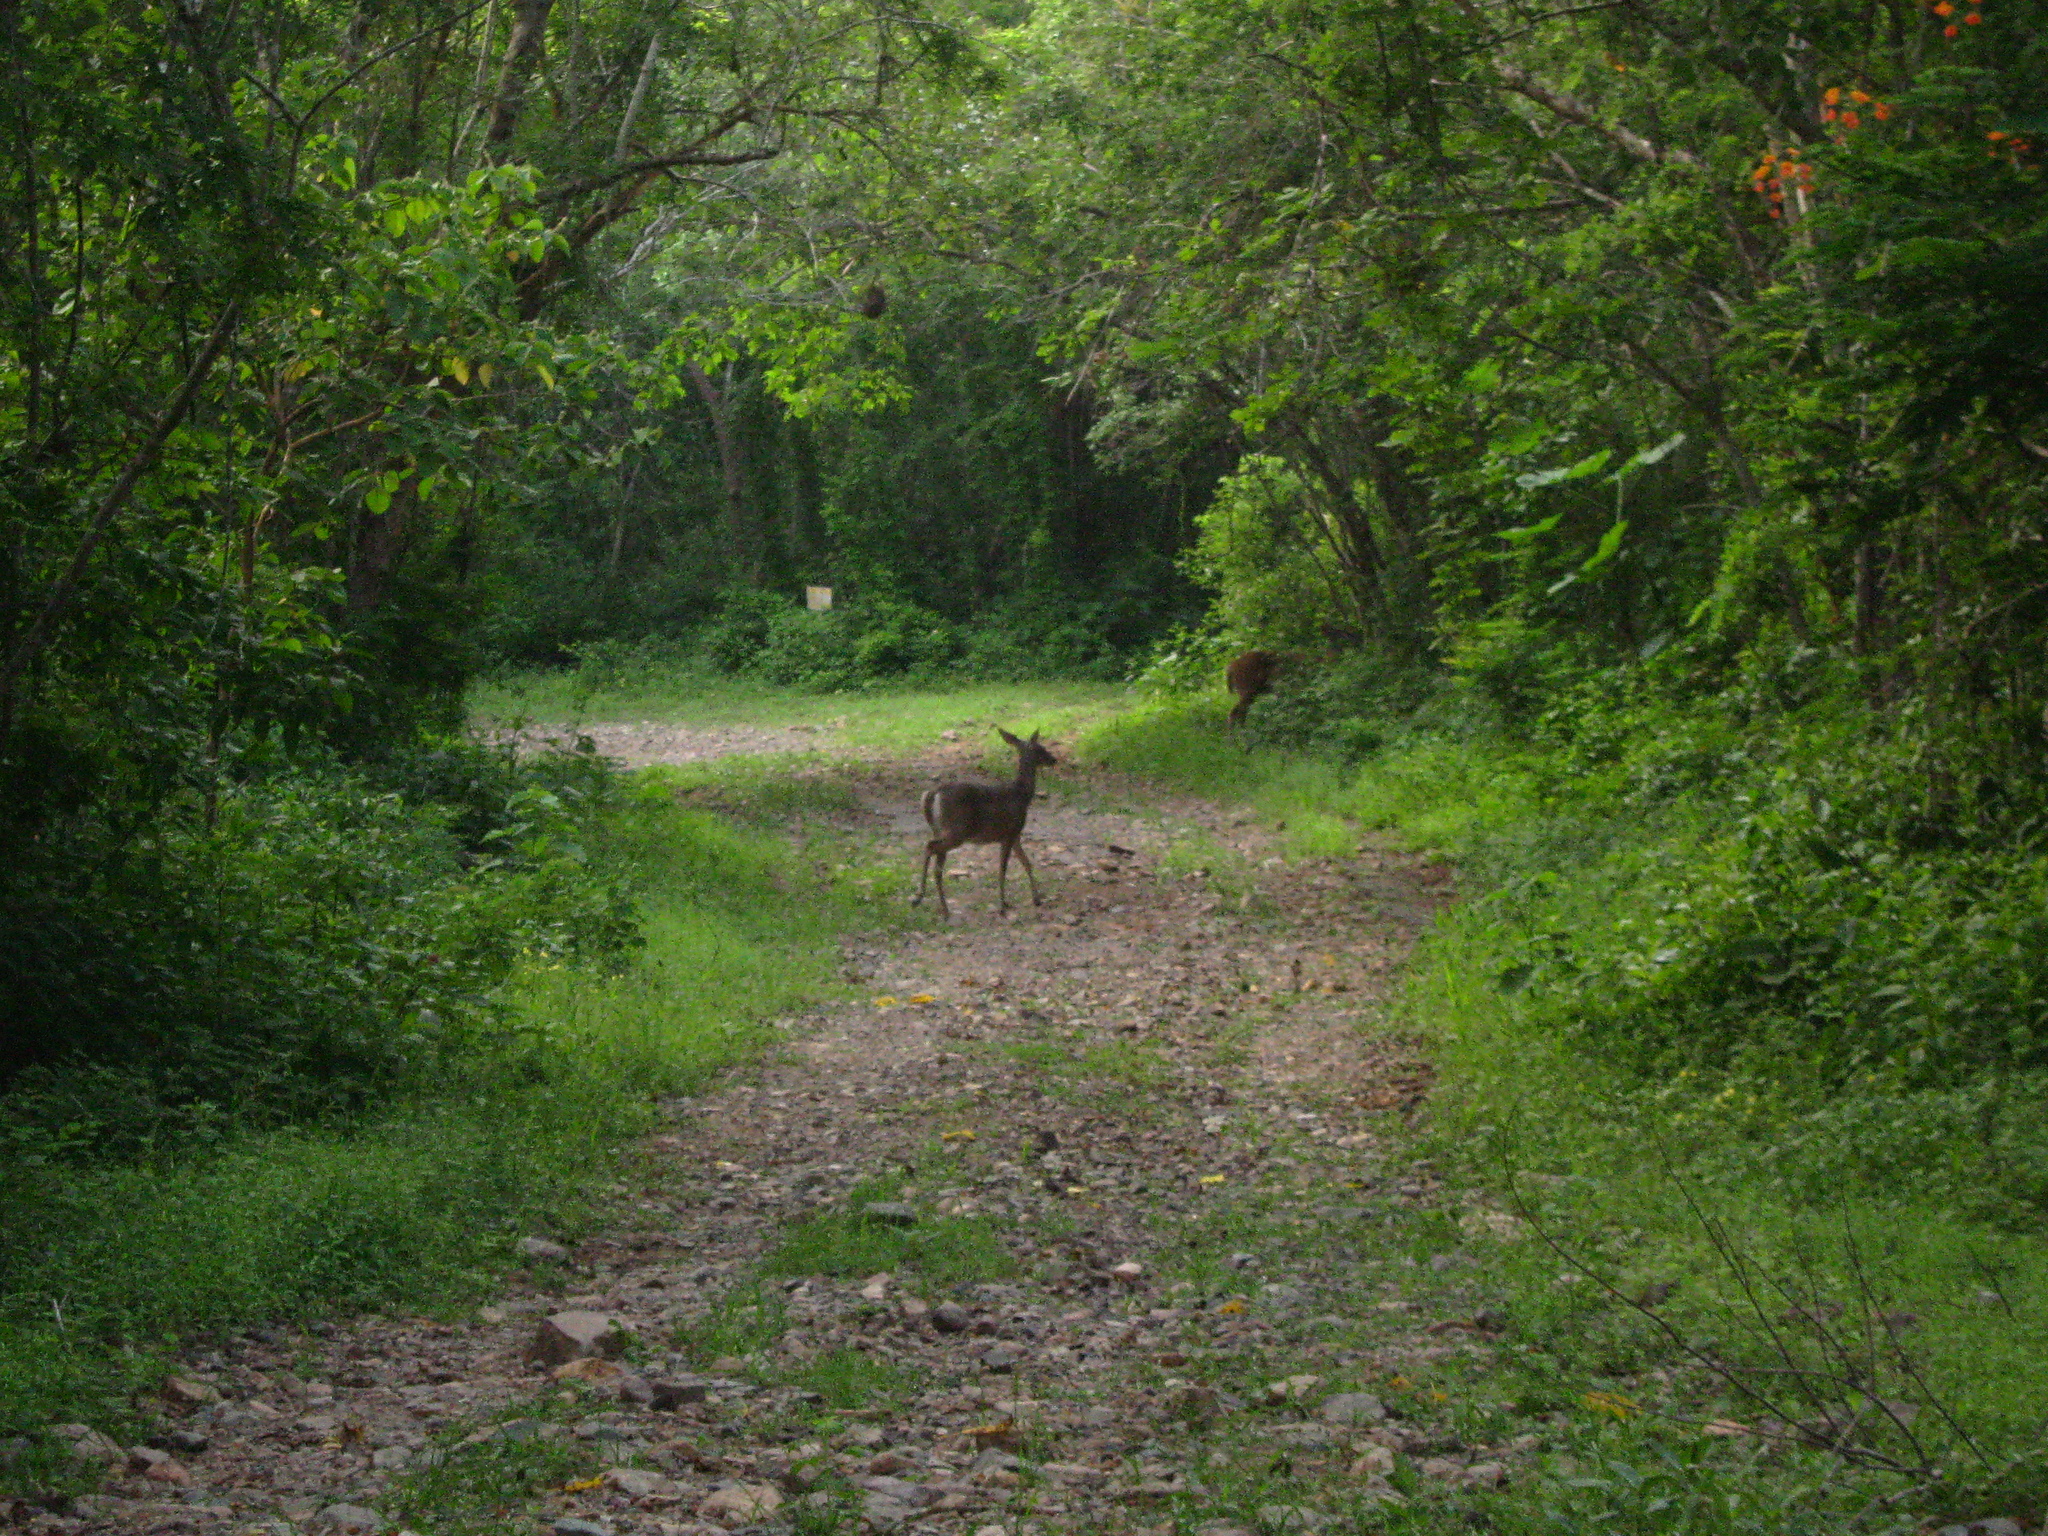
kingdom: Animalia
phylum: Chordata
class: Mammalia
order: Artiodactyla
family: Cervidae
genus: Odocoileus
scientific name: Odocoileus virginianus
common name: White-tailed deer
